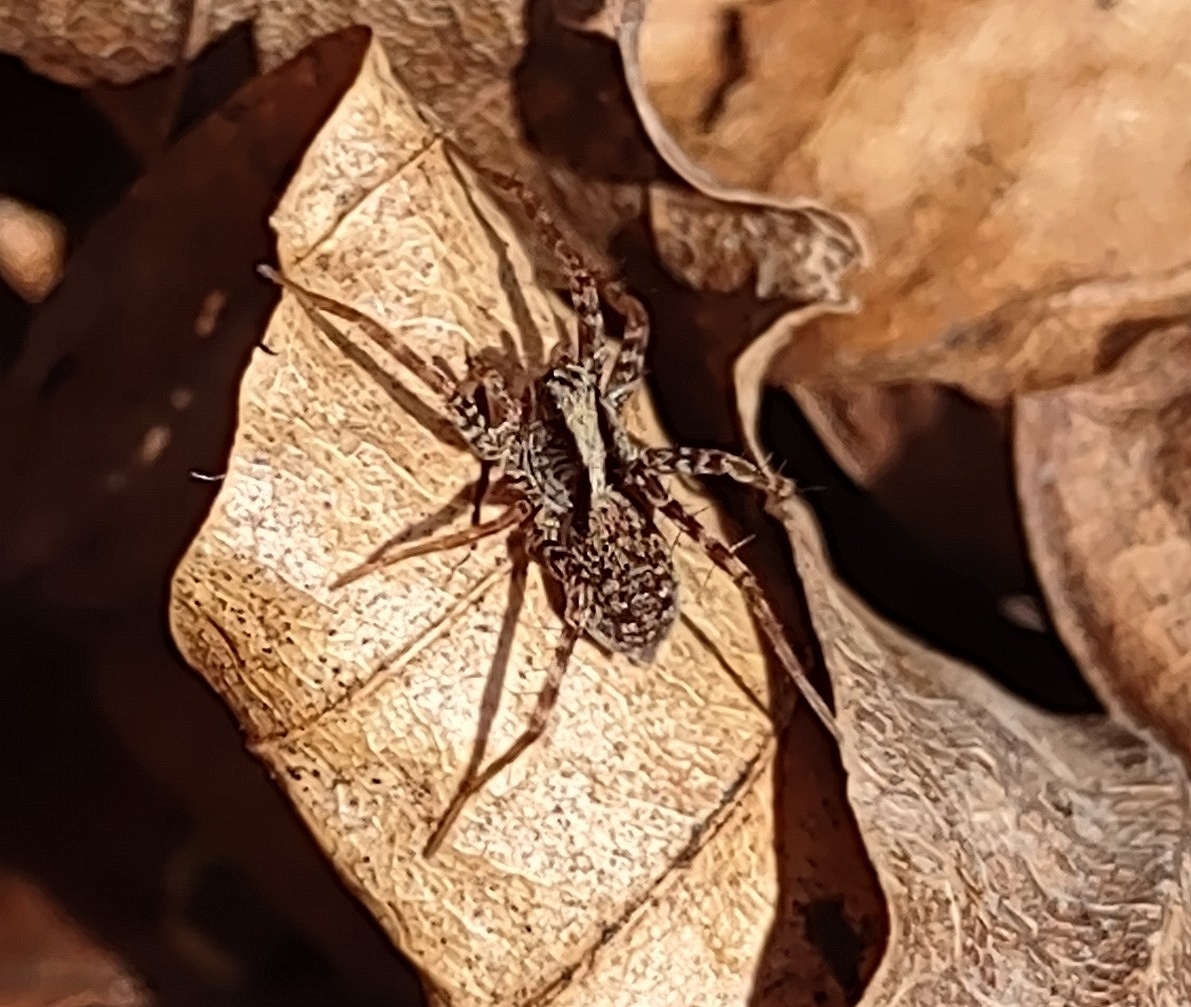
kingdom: Animalia
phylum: Arthropoda
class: Arachnida
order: Araneae
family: Lycosidae
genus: Pardosa
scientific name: Pardosa
